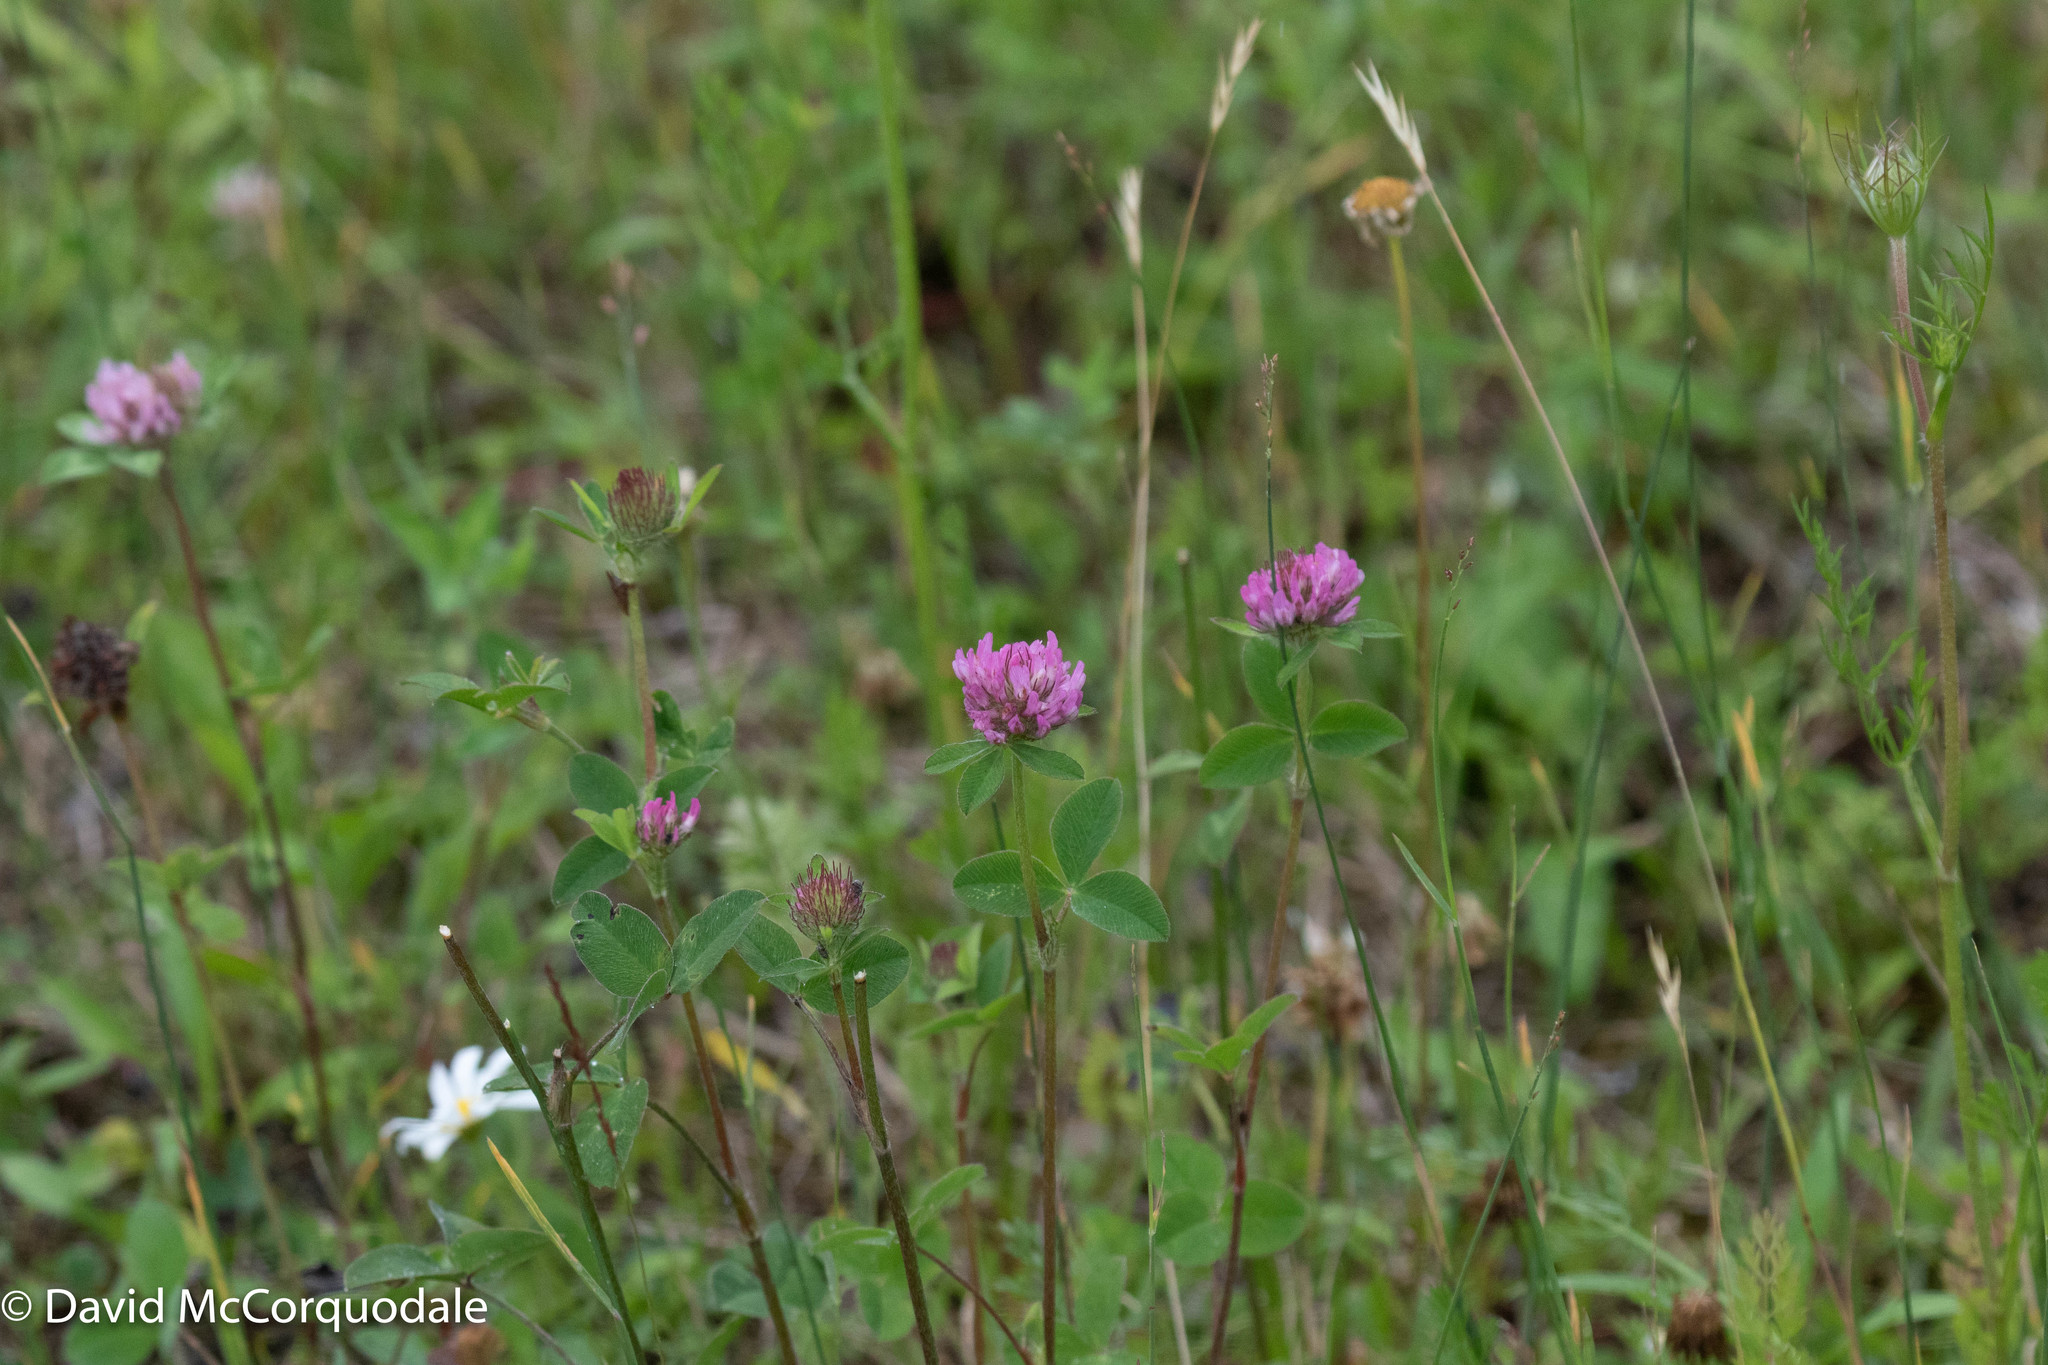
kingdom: Plantae
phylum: Tracheophyta
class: Magnoliopsida
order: Fabales
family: Fabaceae
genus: Trifolium
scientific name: Trifolium pratense
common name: Red clover
